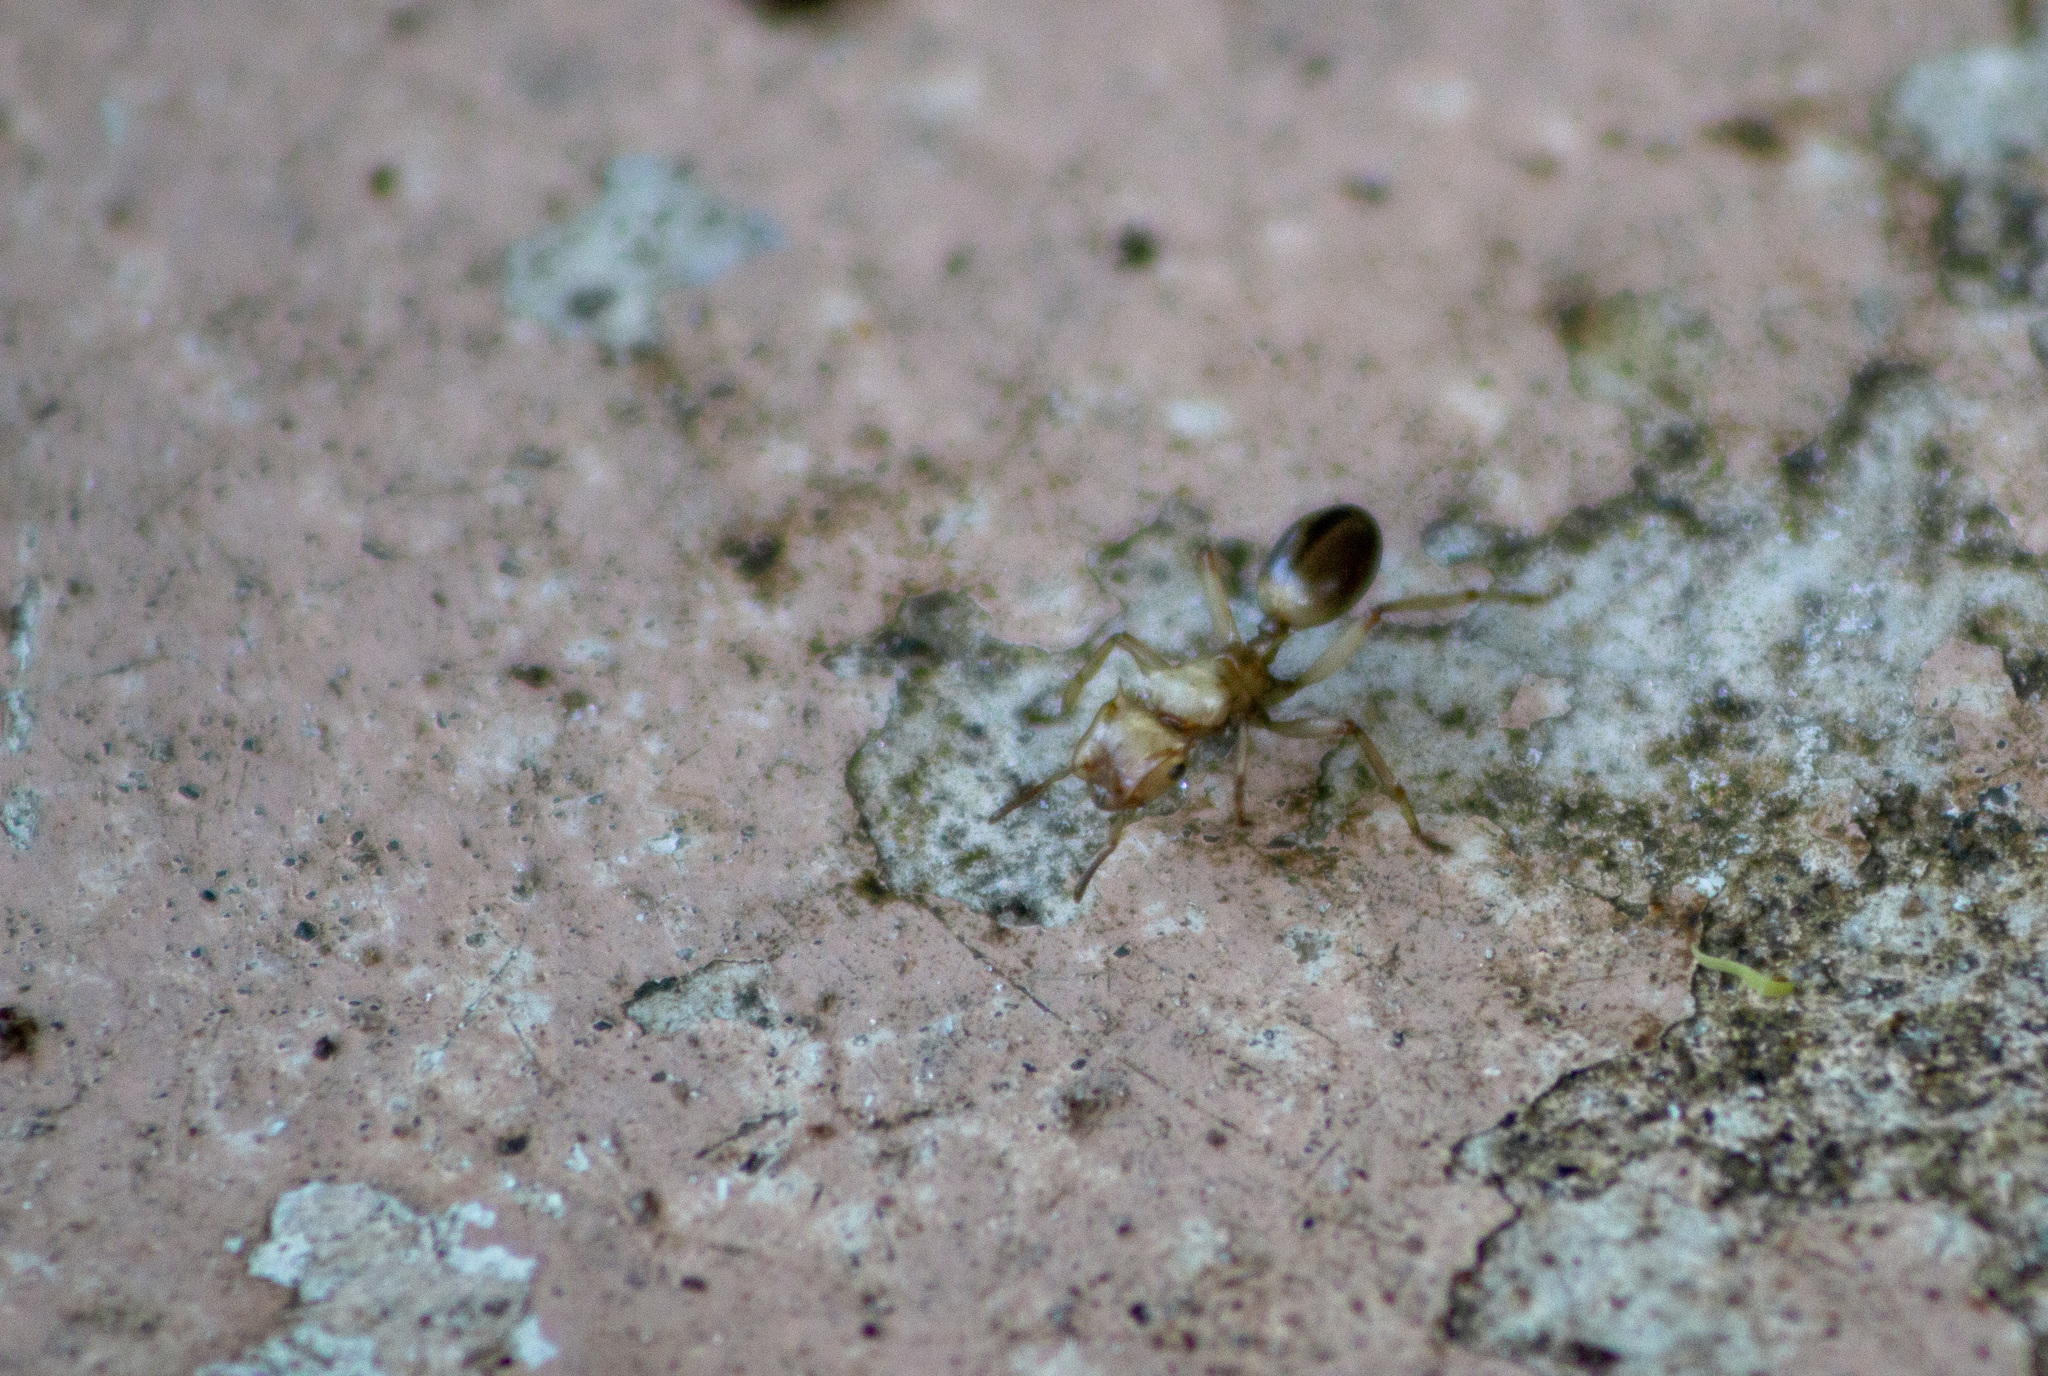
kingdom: Animalia
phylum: Arthropoda
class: Insecta
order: Hymenoptera
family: Formicidae
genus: Cephalotes
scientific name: Cephalotes atratus
